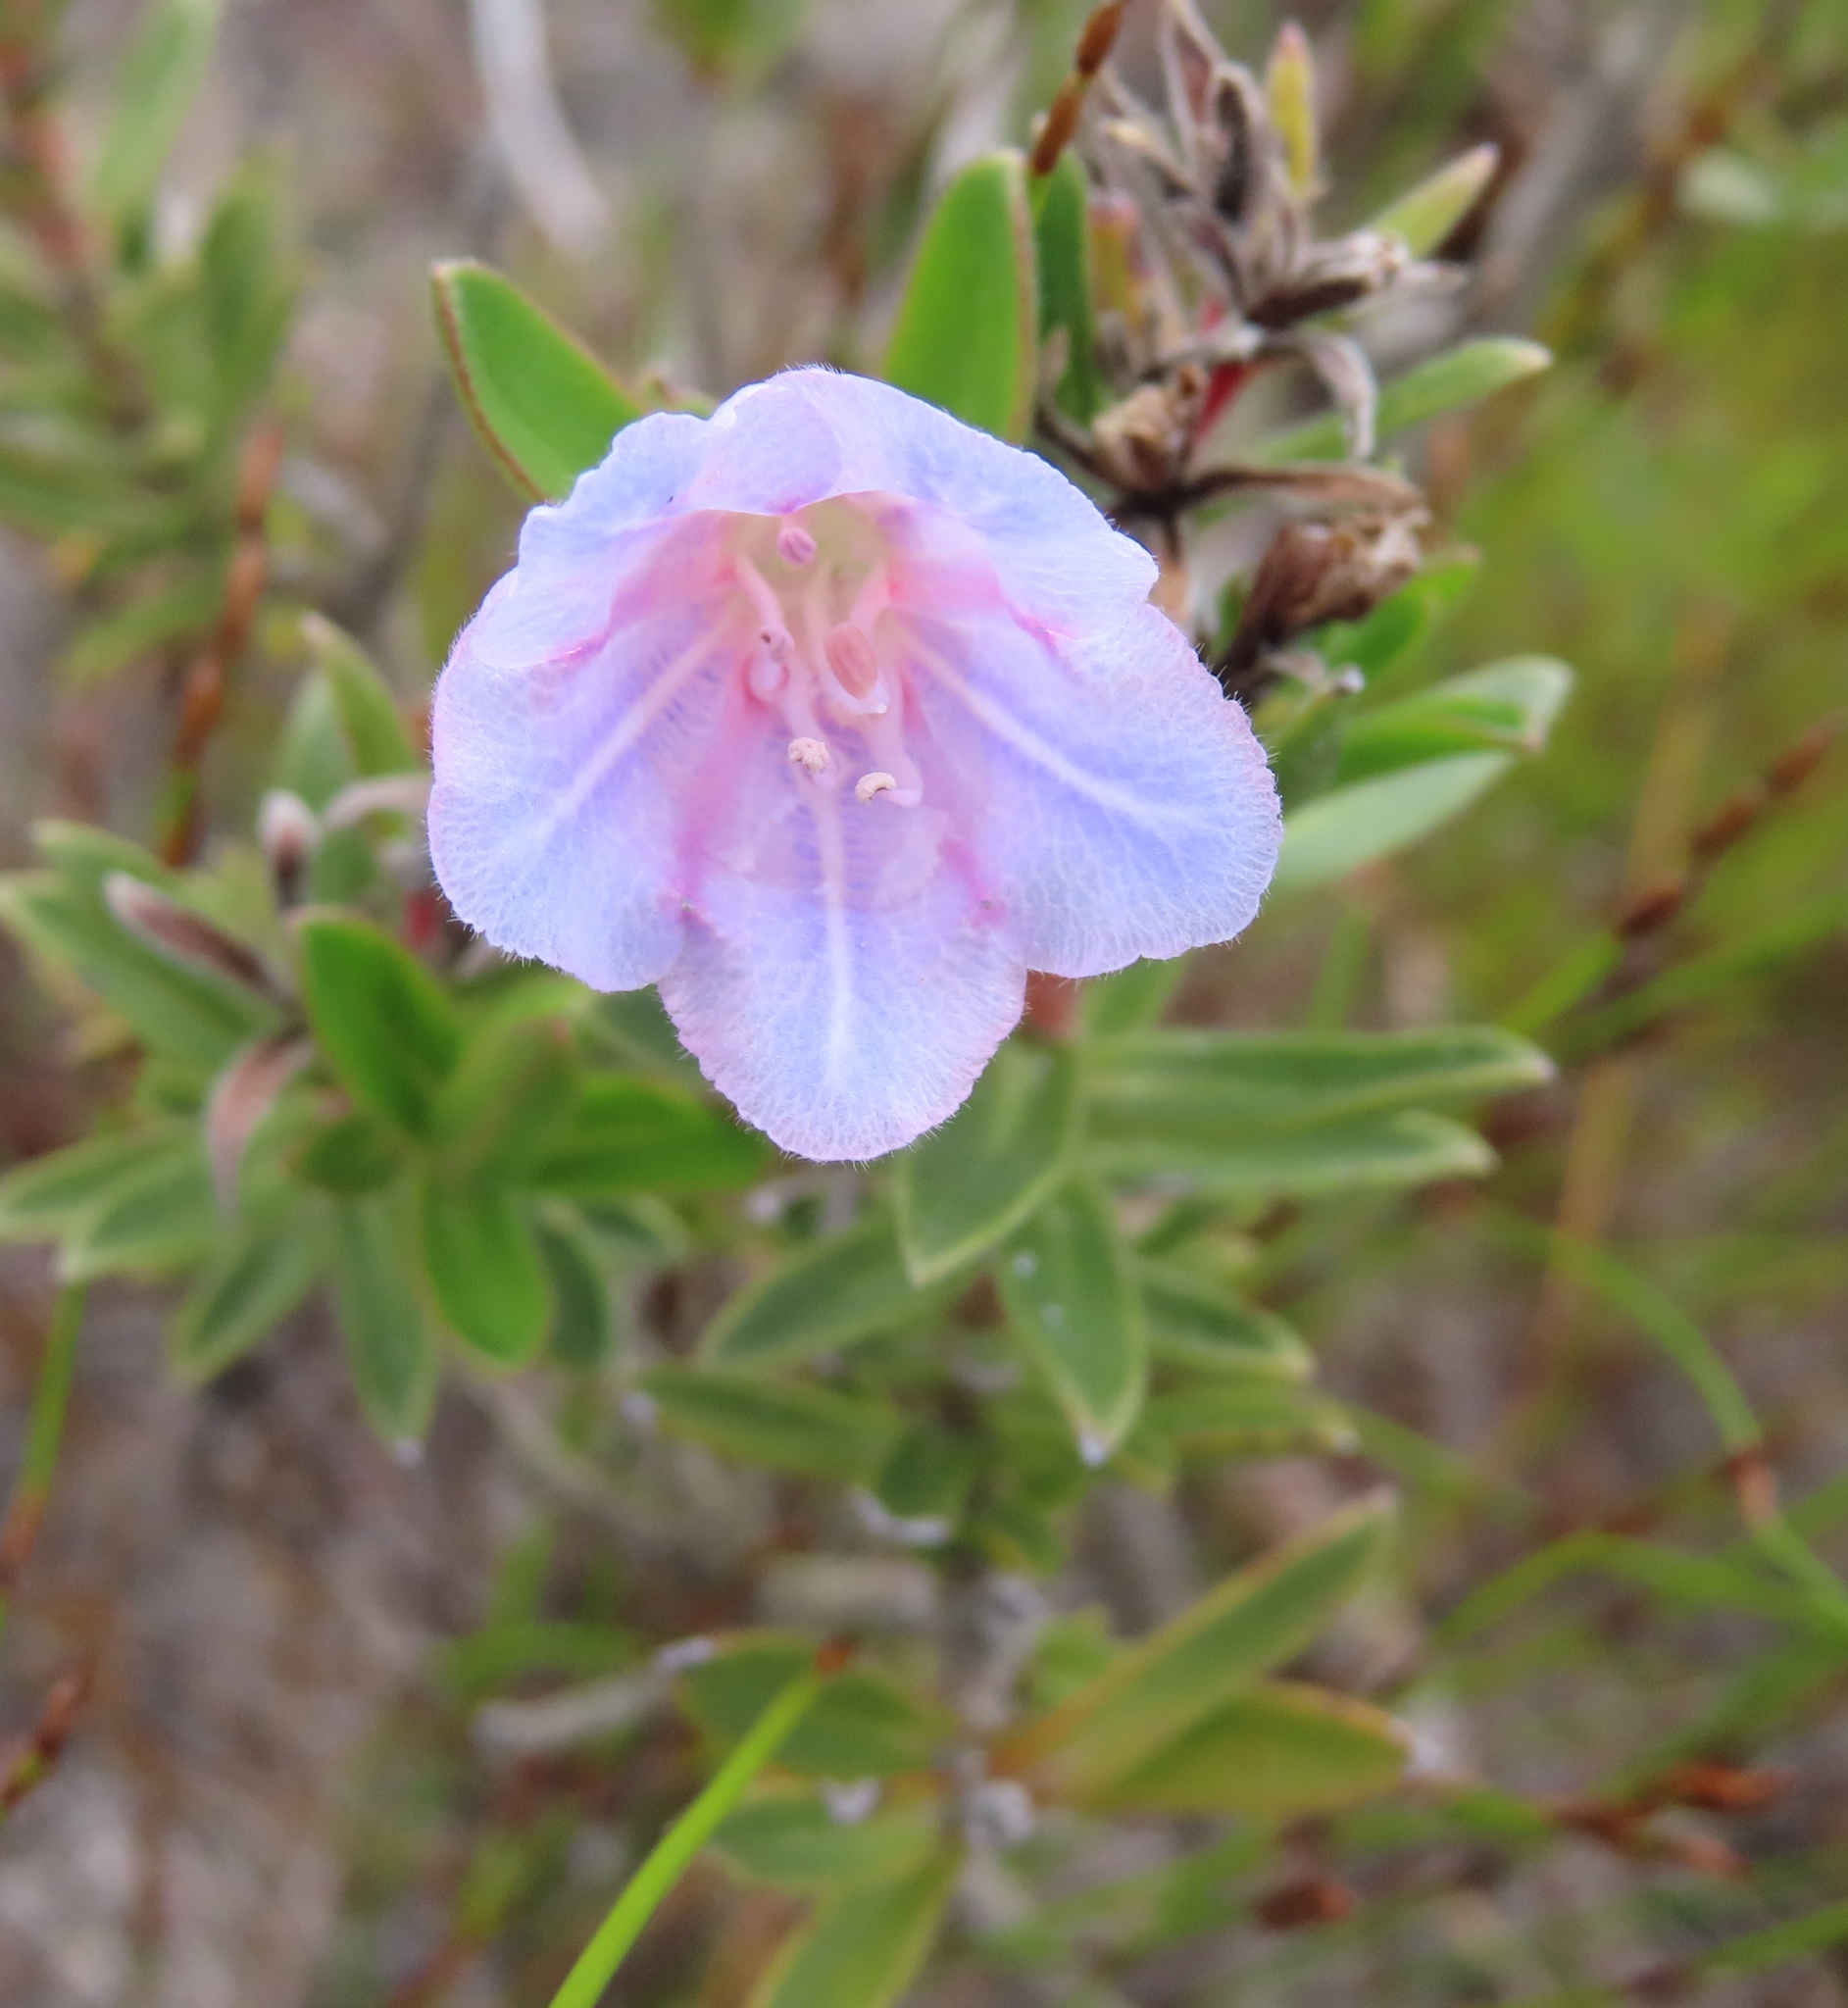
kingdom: Plantae
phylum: Tracheophyta
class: Magnoliopsida
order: Boraginales
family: Boraginaceae
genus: Lobostemon
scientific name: Lobostemon fruticosus
